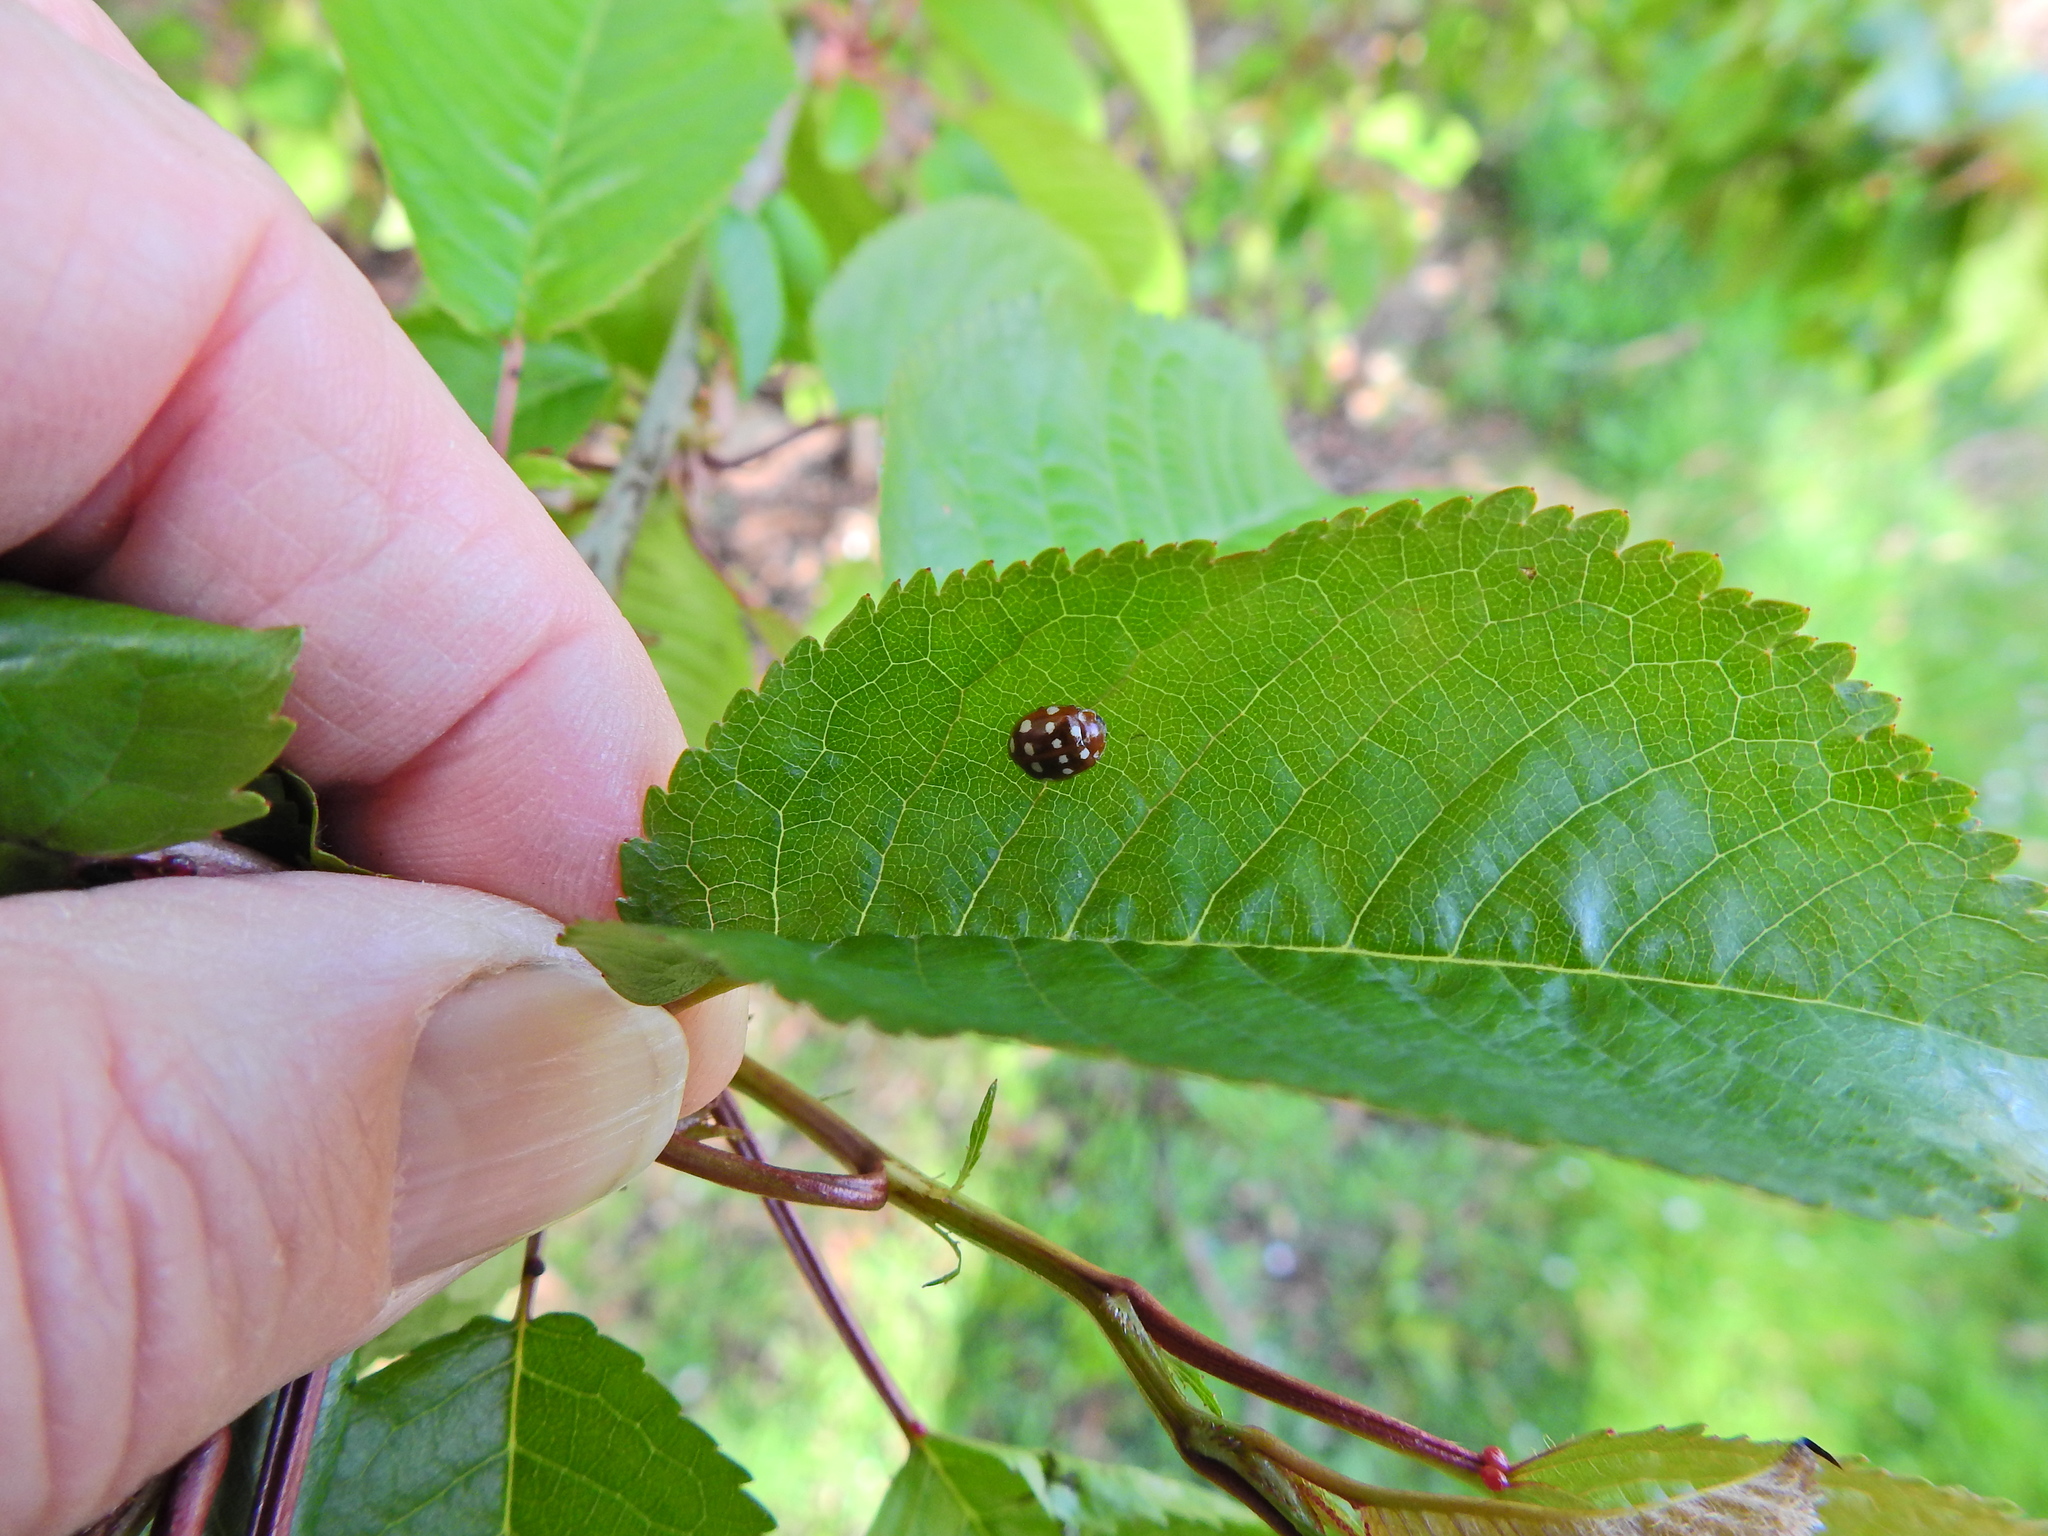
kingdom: Animalia
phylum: Arthropoda
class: Insecta
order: Coleoptera
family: Coccinellidae
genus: Calvia
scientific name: Calvia quatuordecimguttata
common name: Cream-spot ladybird
